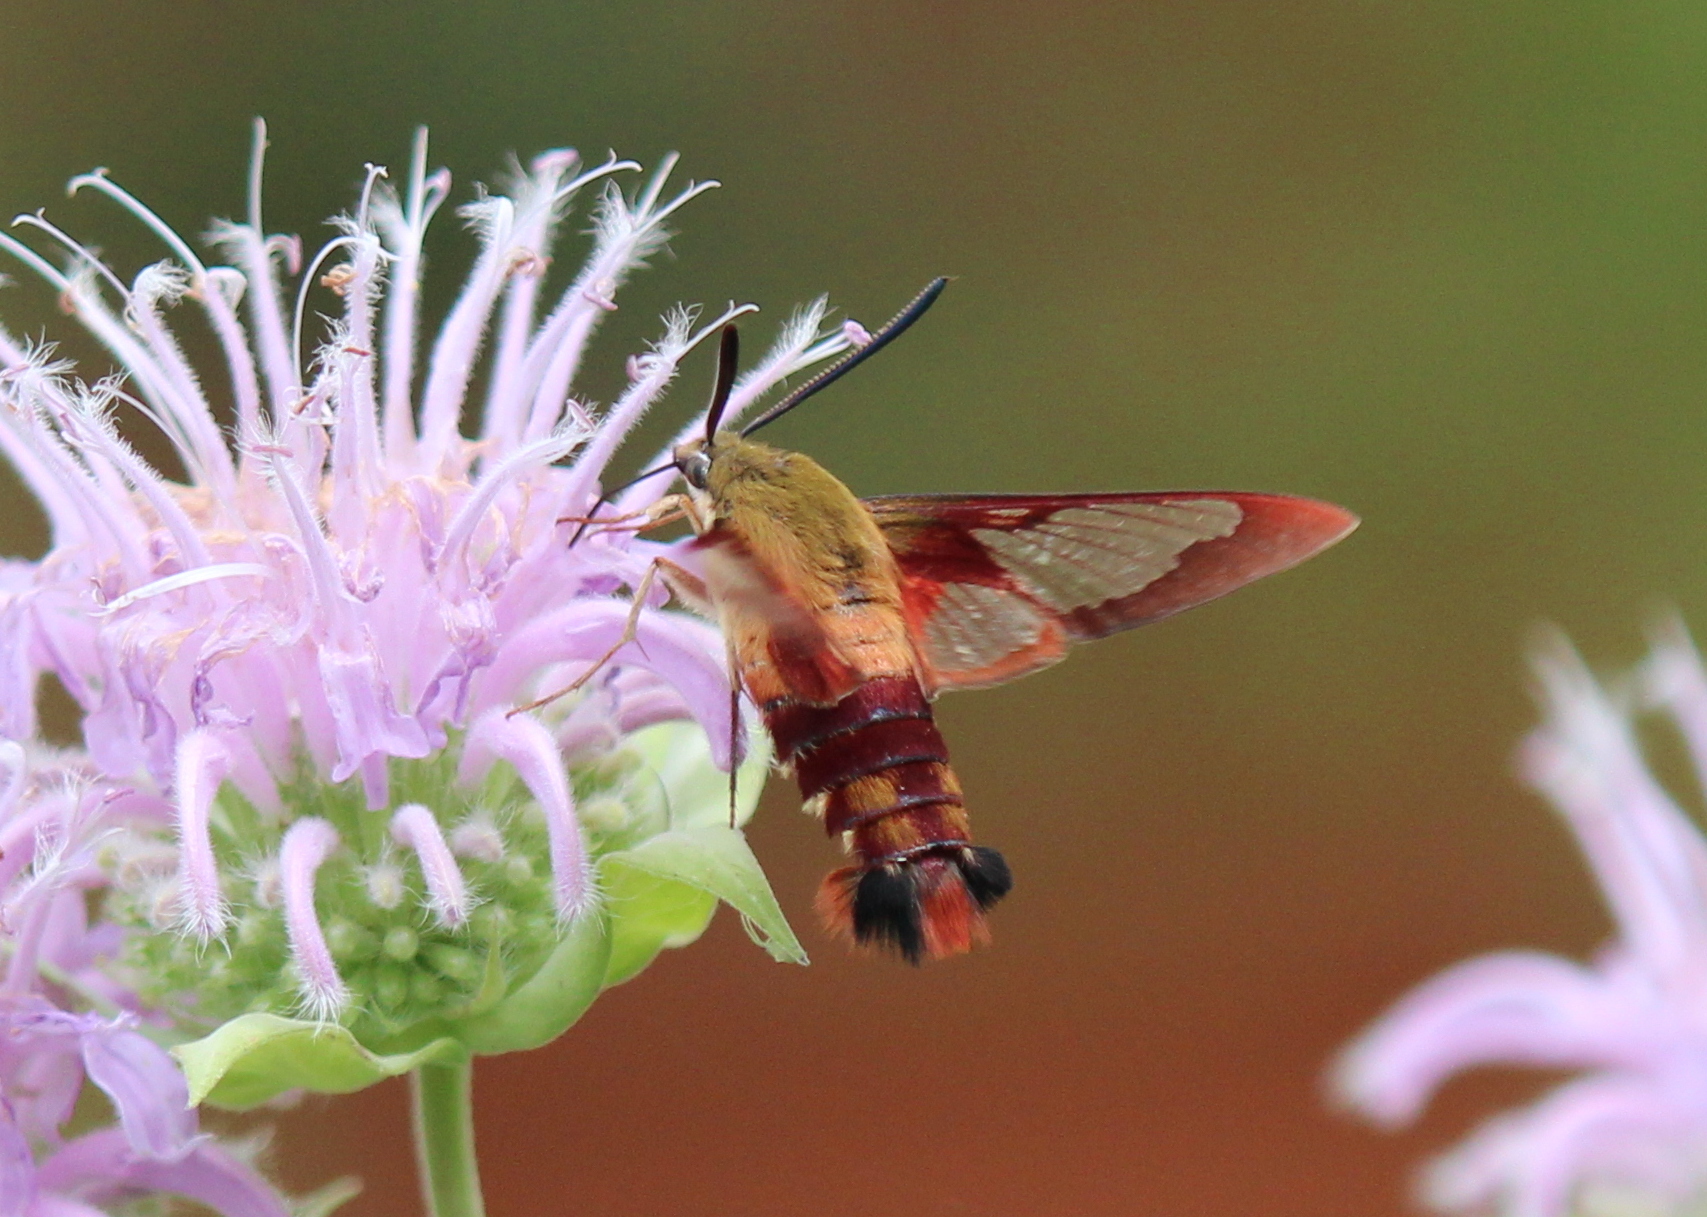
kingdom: Animalia
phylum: Arthropoda
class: Insecta
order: Lepidoptera
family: Sphingidae
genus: Hemaris
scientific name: Hemaris thysbe
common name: Common clear-wing
